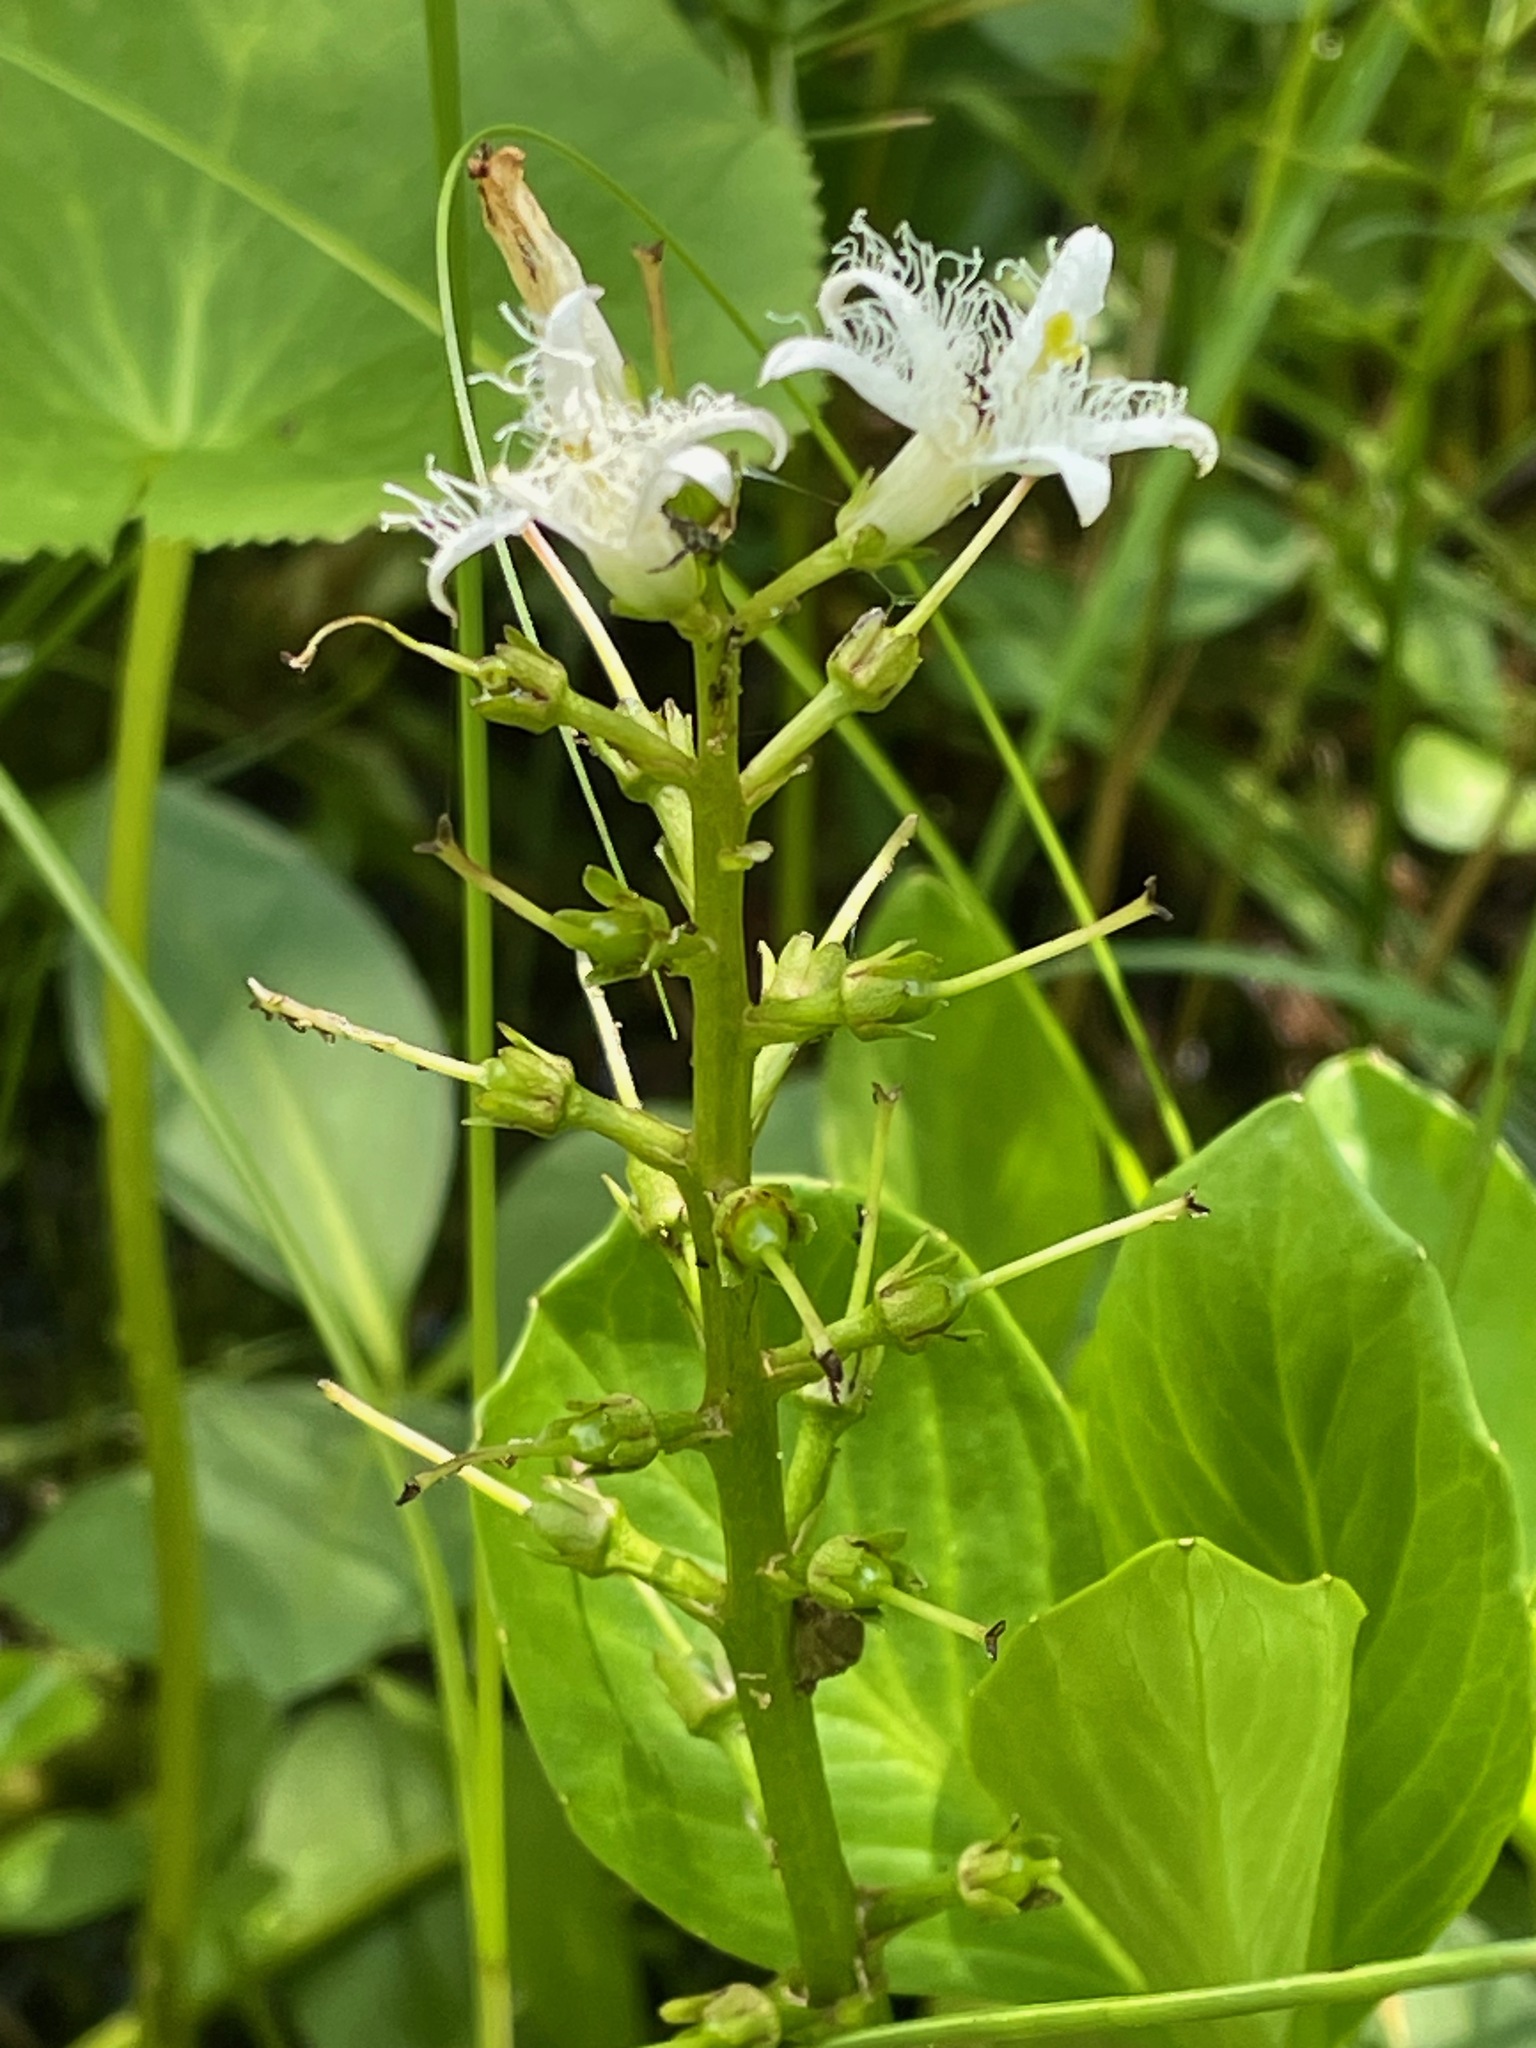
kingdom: Plantae
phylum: Tracheophyta
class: Magnoliopsida
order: Asterales
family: Menyanthaceae
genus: Menyanthes
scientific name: Menyanthes trifoliata
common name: Bogbean
